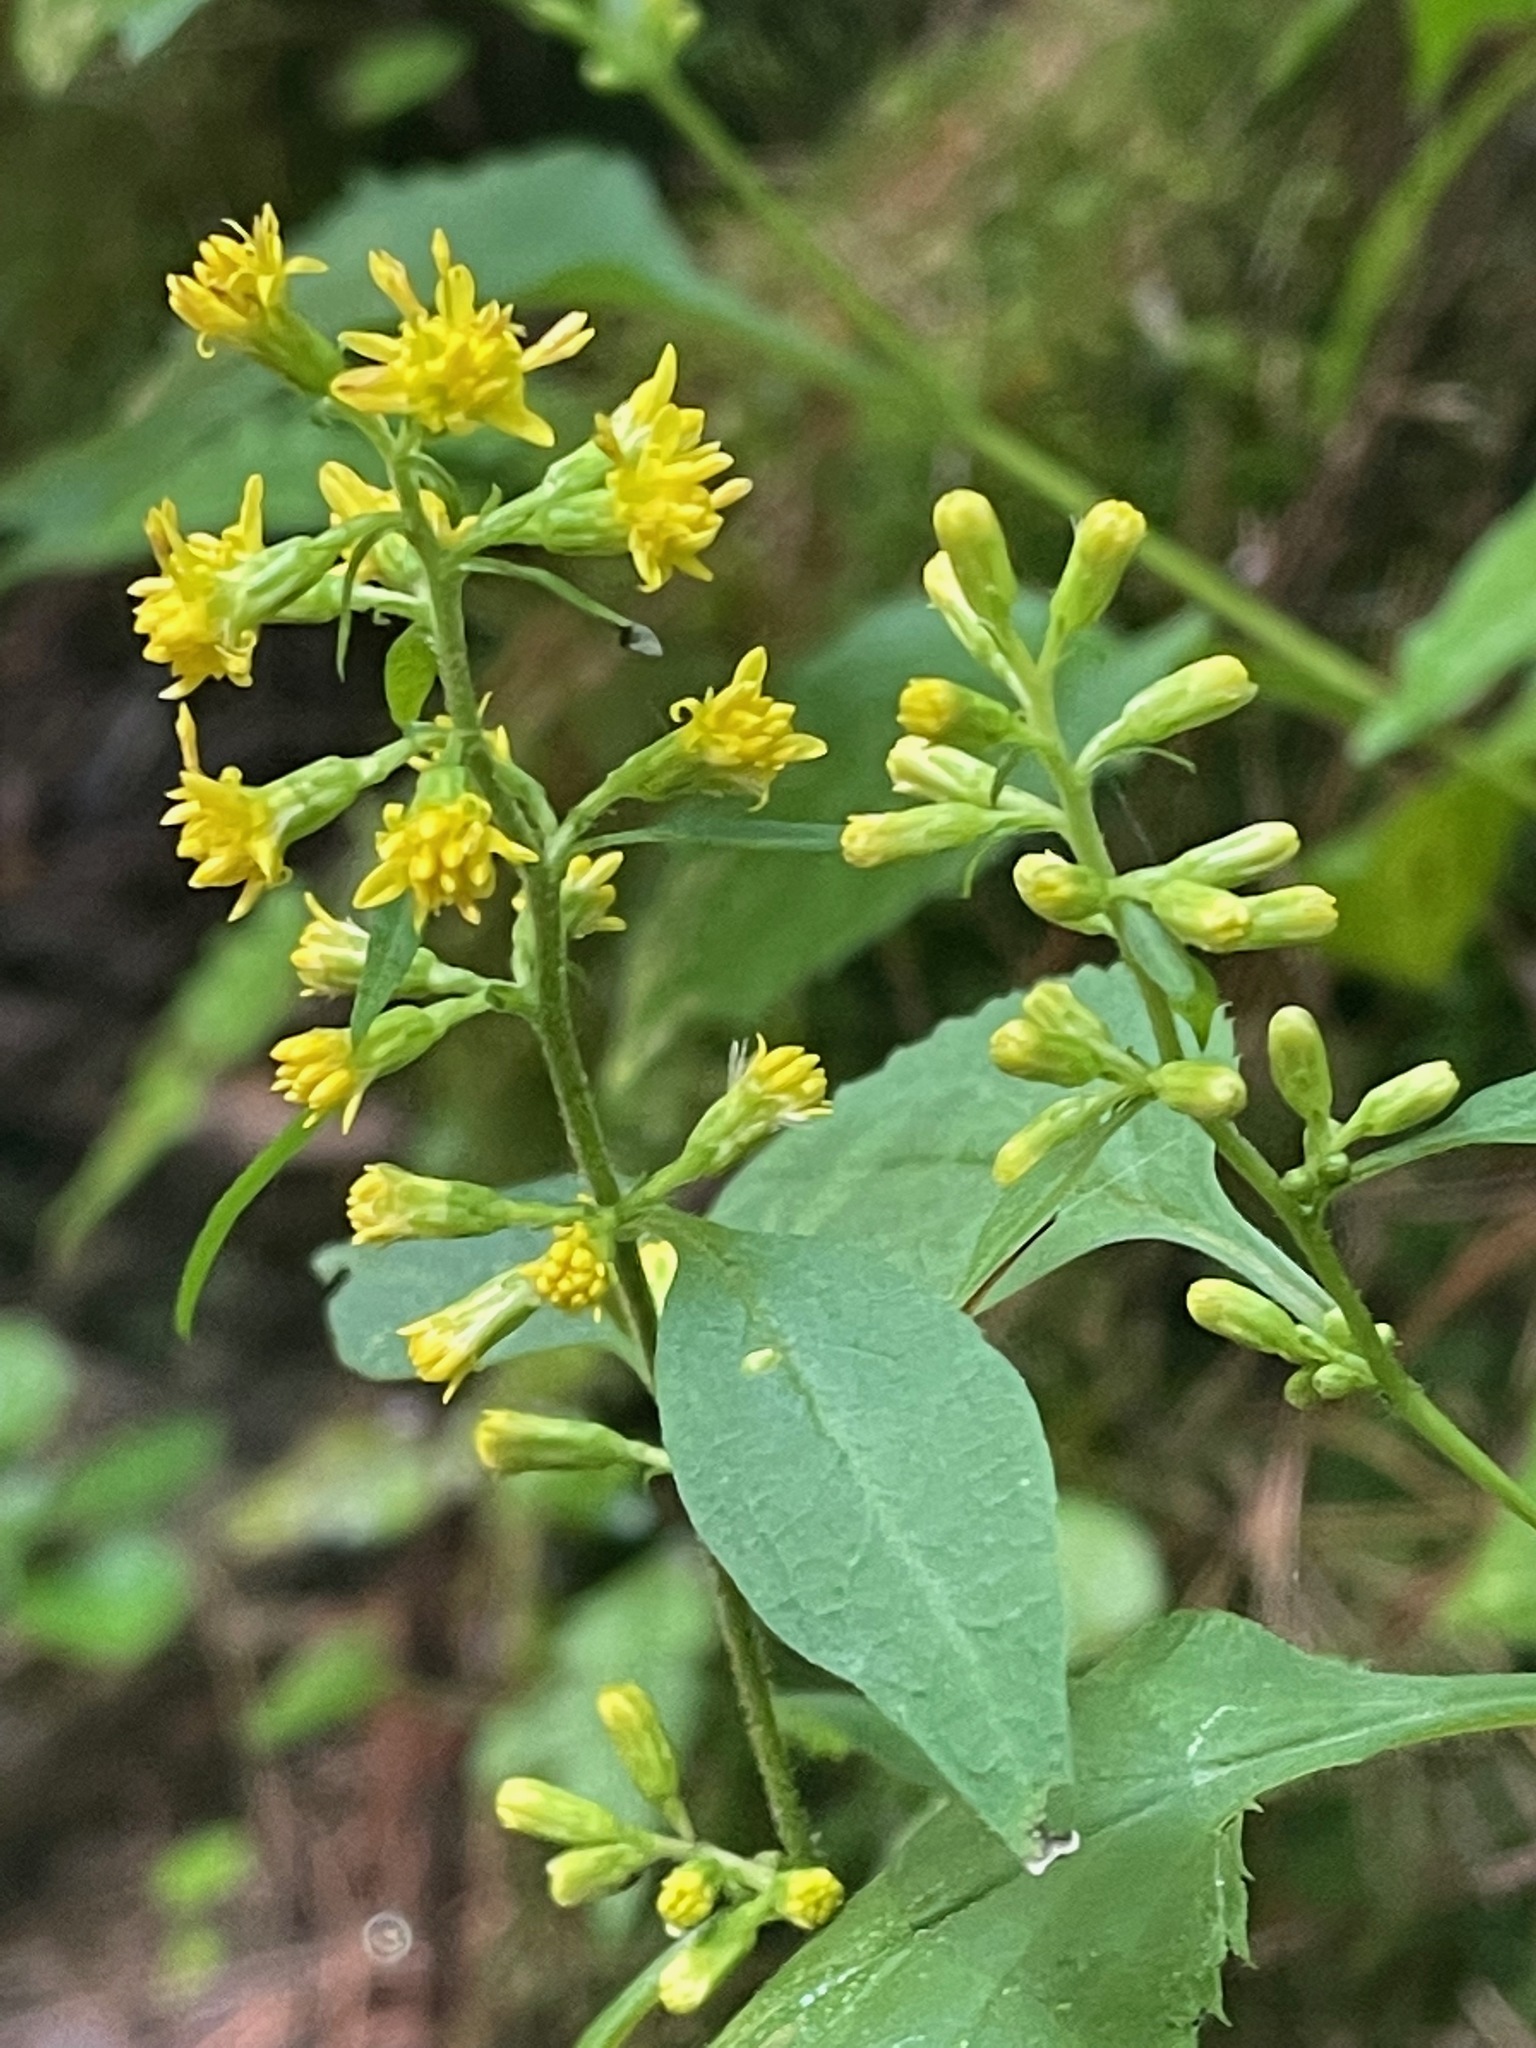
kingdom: Plantae
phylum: Tracheophyta
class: Magnoliopsida
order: Asterales
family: Asteraceae
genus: Solidago
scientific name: Solidago flexicaulis
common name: Zig-zag goldenrod
